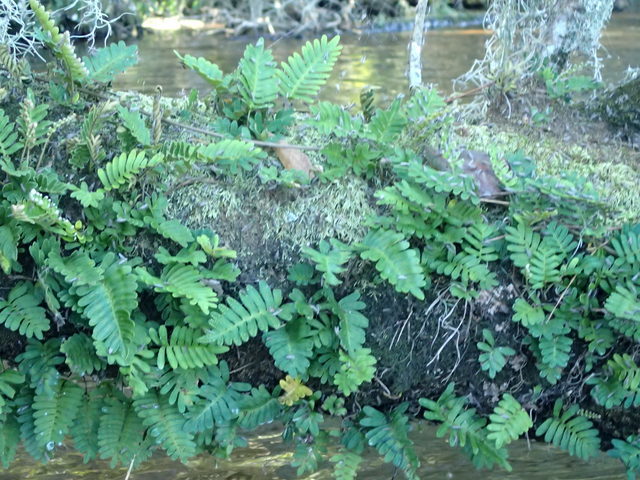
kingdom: Plantae
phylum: Tracheophyta
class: Polypodiopsida
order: Polypodiales
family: Polypodiaceae
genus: Pleopeltis
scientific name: Pleopeltis michauxiana
